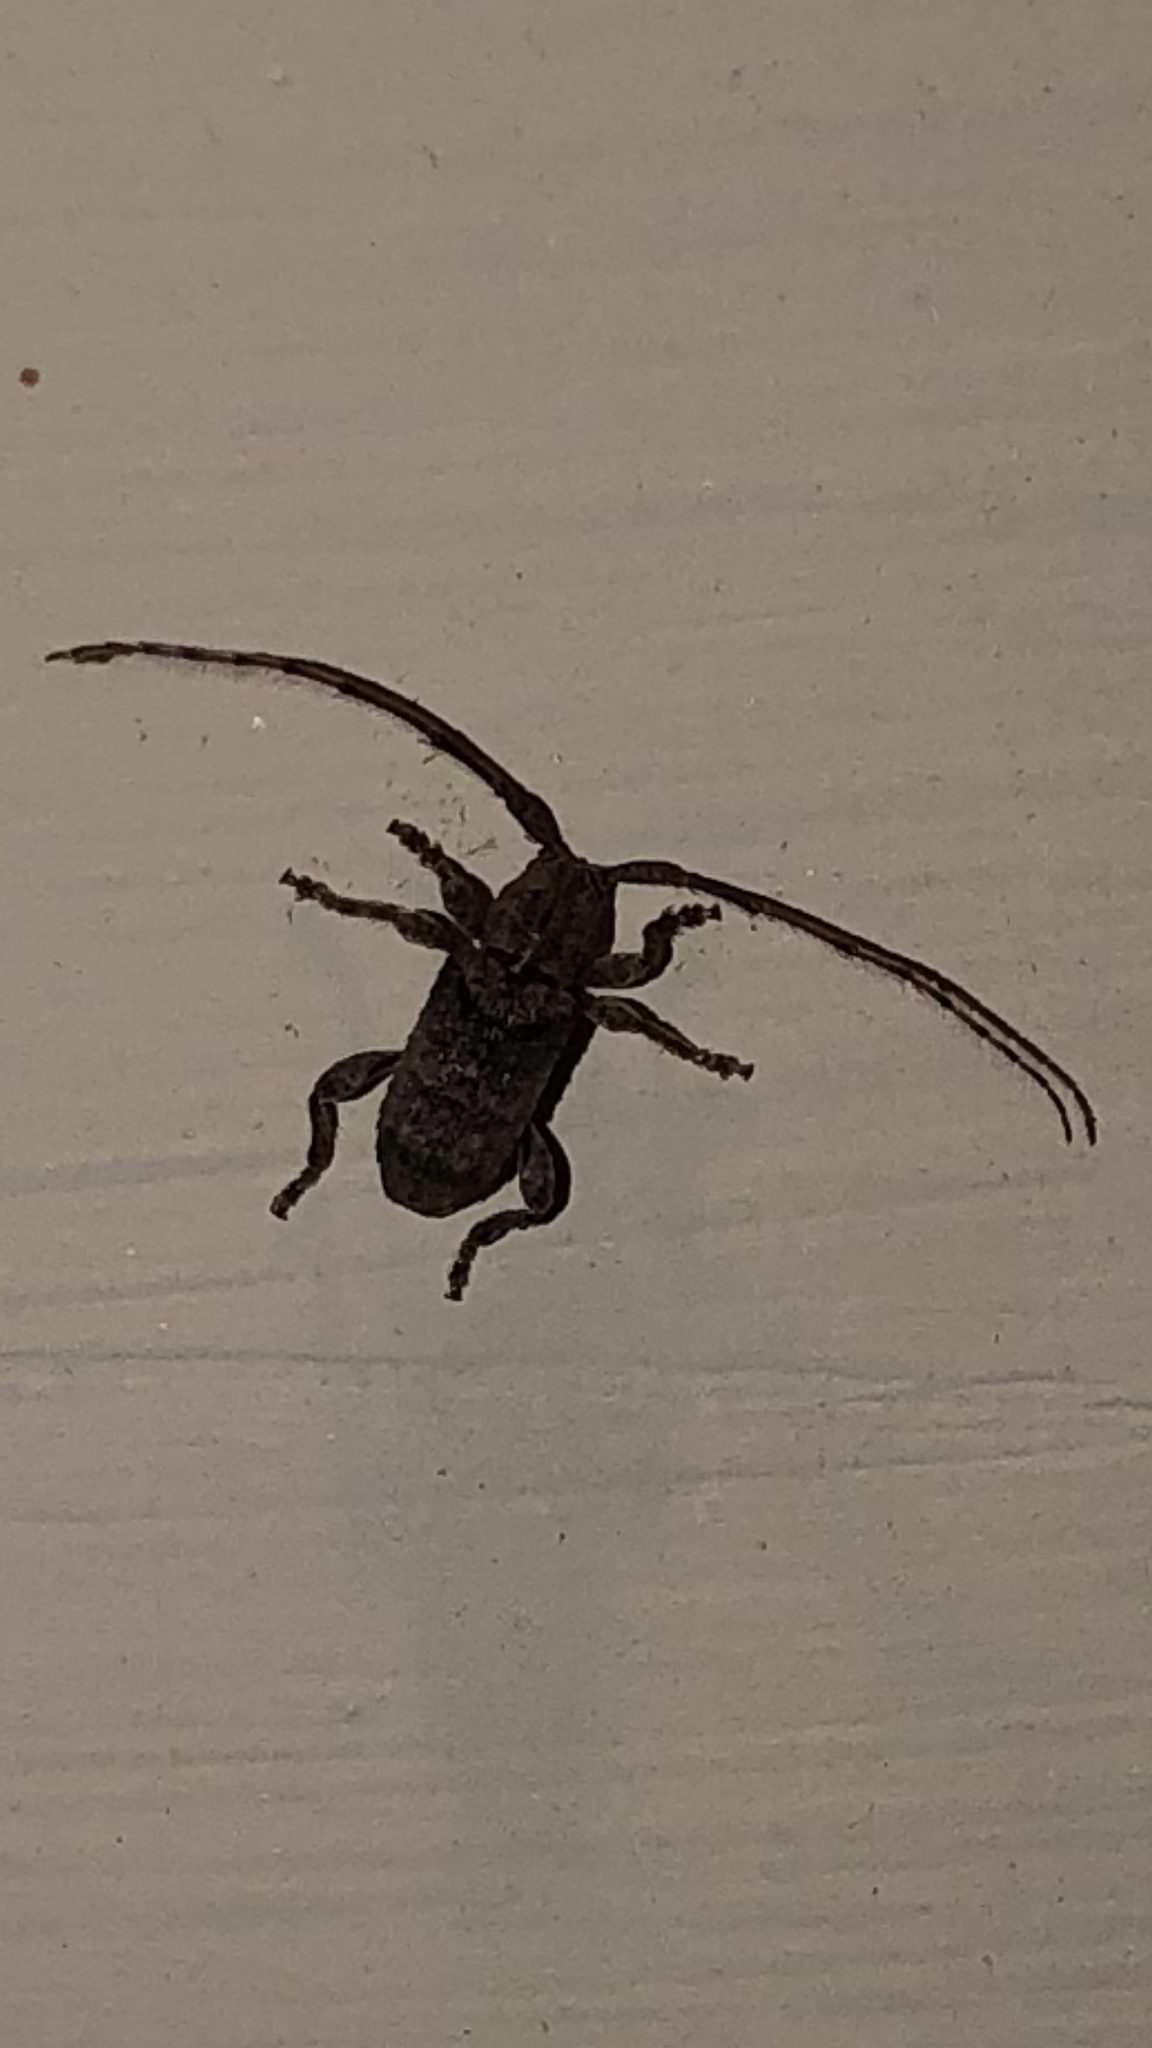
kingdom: Animalia
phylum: Arthropoda
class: Insecta
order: Coleoptera
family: Cerambycidae
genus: Ecyrus
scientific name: Ecyrus dasycerus
